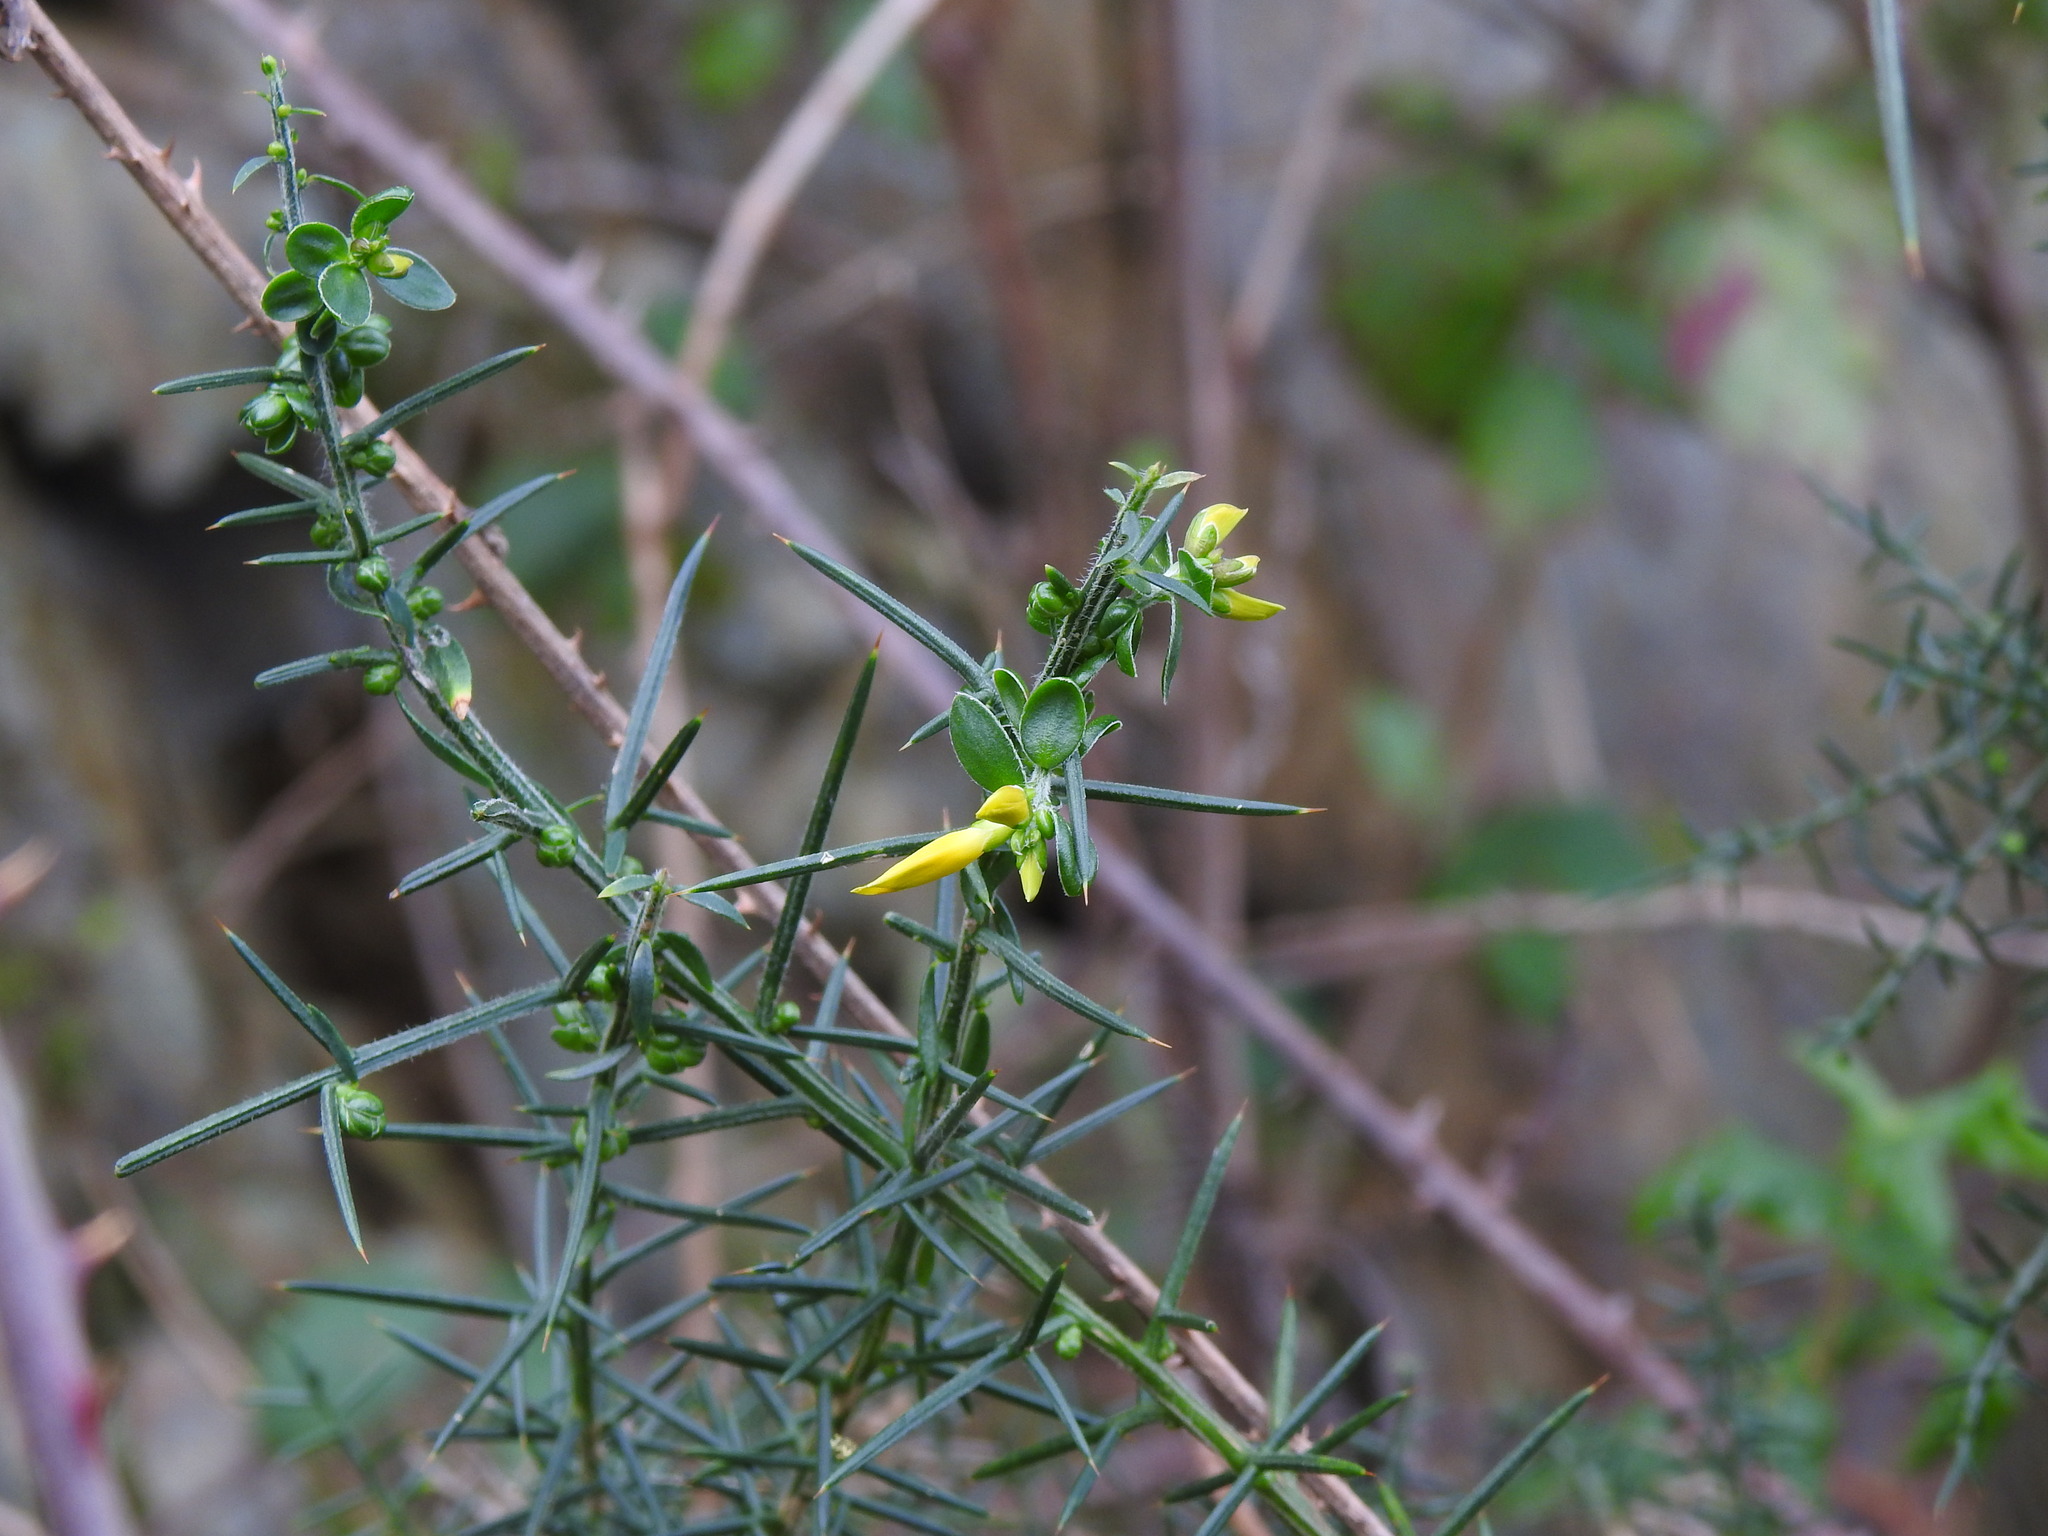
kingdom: Plantae
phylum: Tracheophyta
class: Magnoliopsida
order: Fabales
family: Fabaceae
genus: Genista
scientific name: Genista falcata
